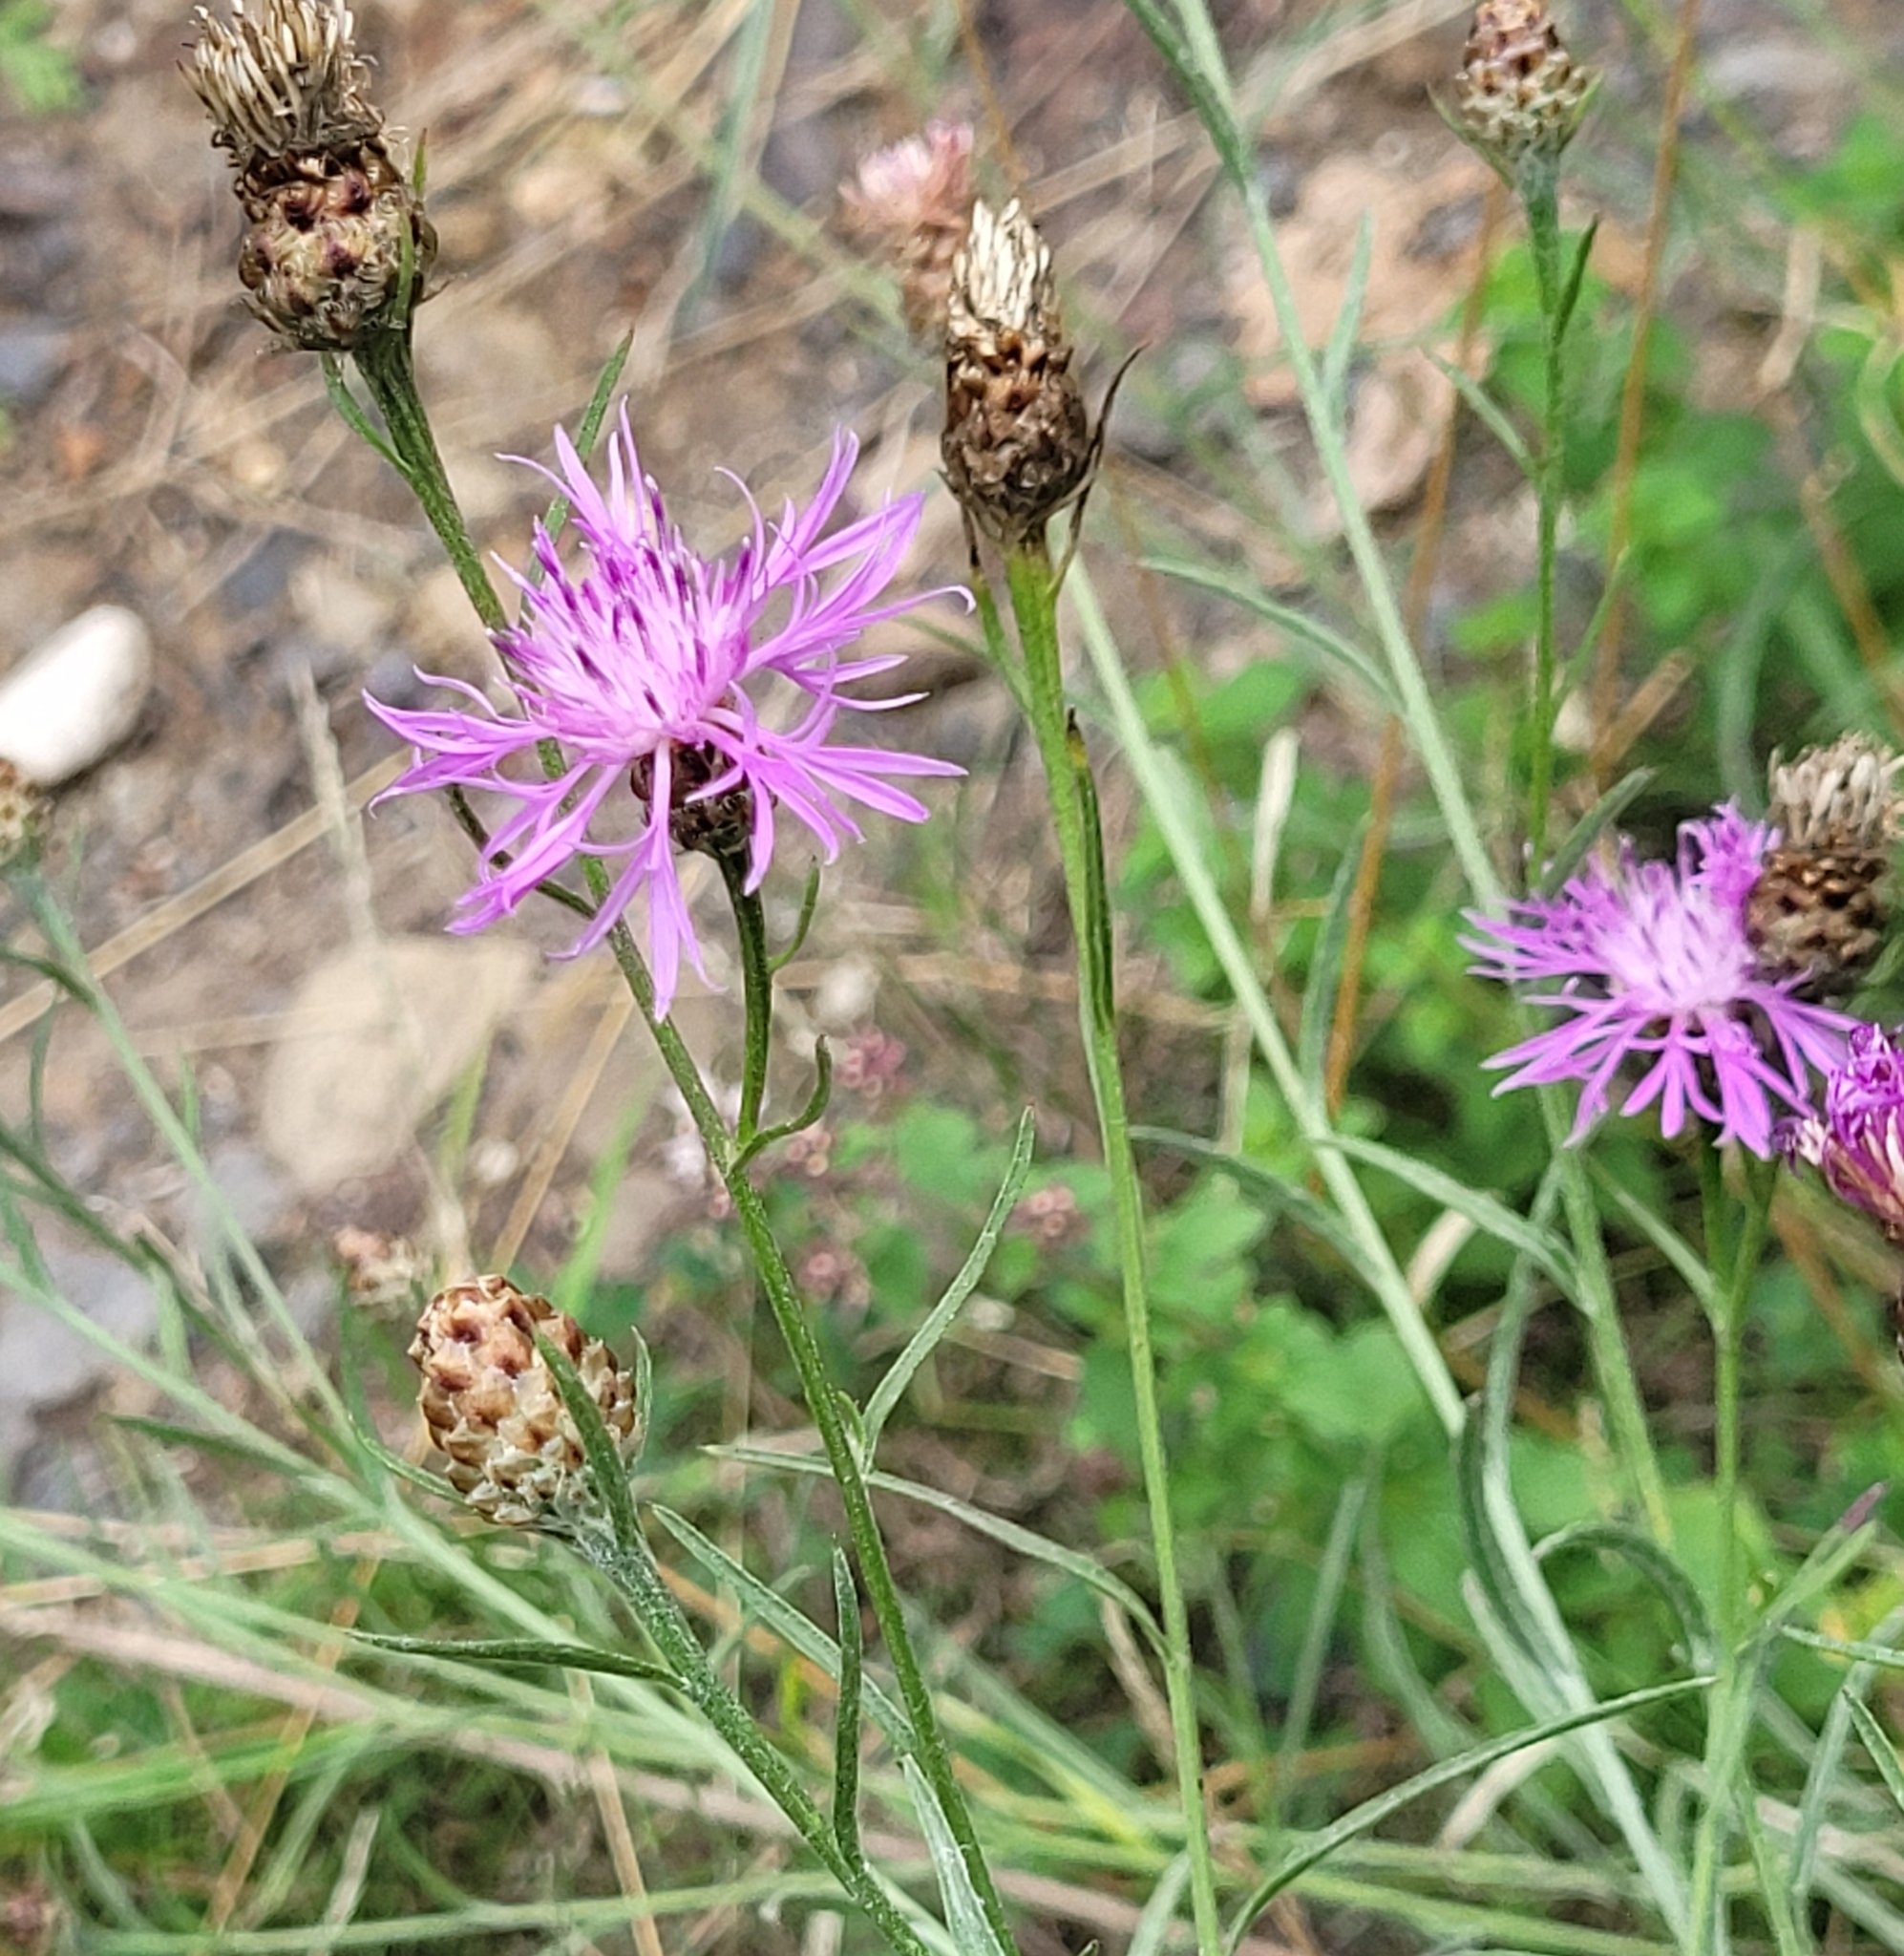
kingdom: Plantae
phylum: Tracheophyta
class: Magnoliopsida
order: Asterales
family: Asteraceae
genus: Centaurea
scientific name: Centaurea jacea
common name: Brown knapweed
